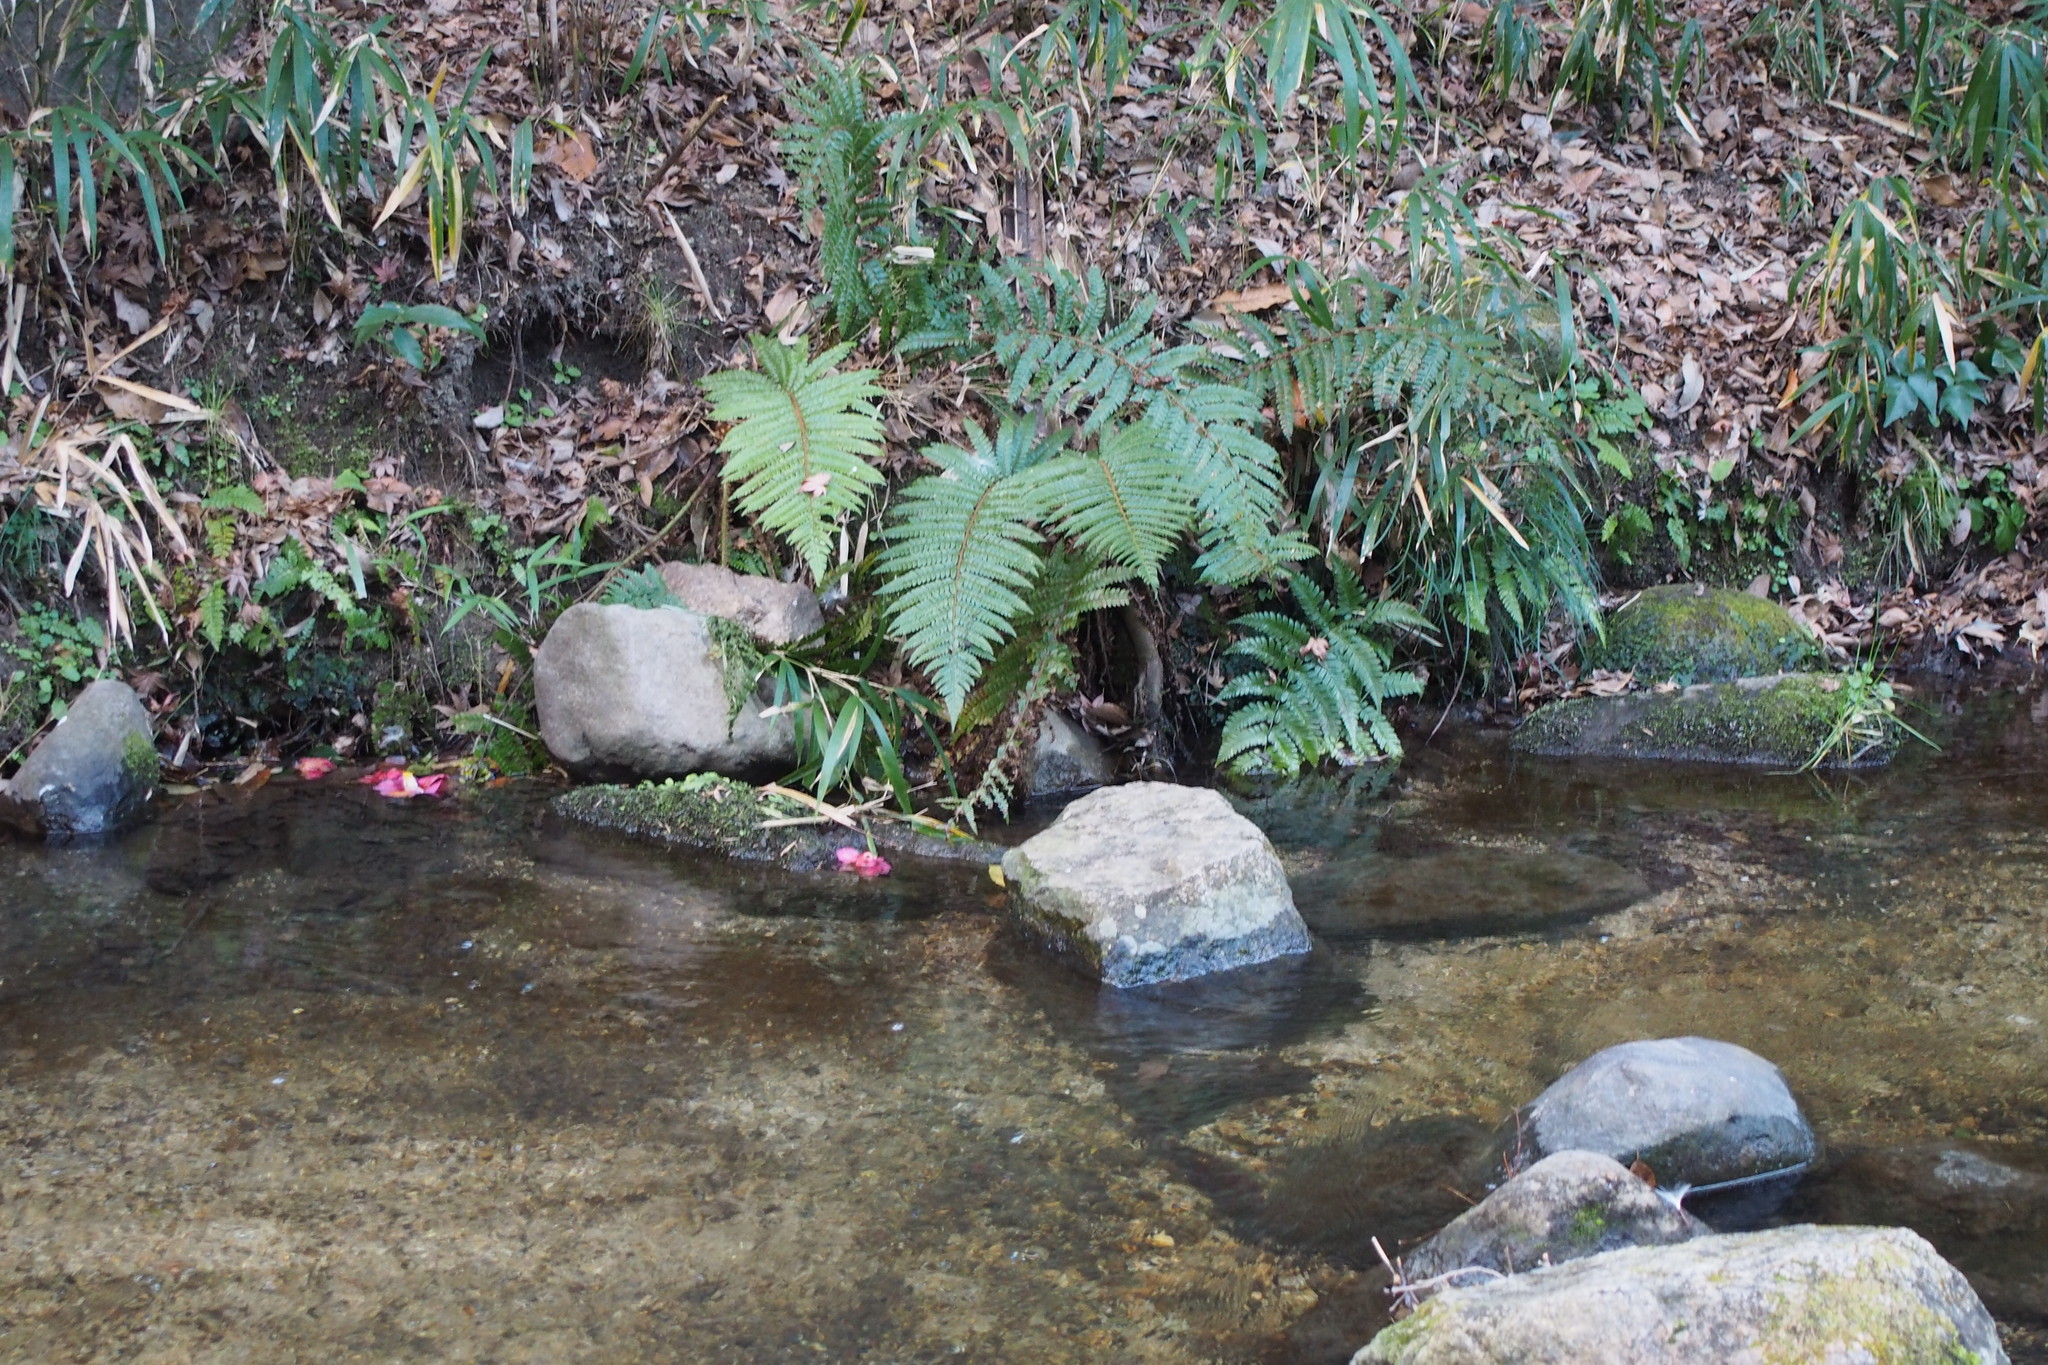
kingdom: Plantae
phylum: Tracheophyta
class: Polypodiopsida
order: Polypodiales
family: Dryopteridaceae
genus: Polystichum
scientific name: Polystichum luctuosum
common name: Korean rockfern
